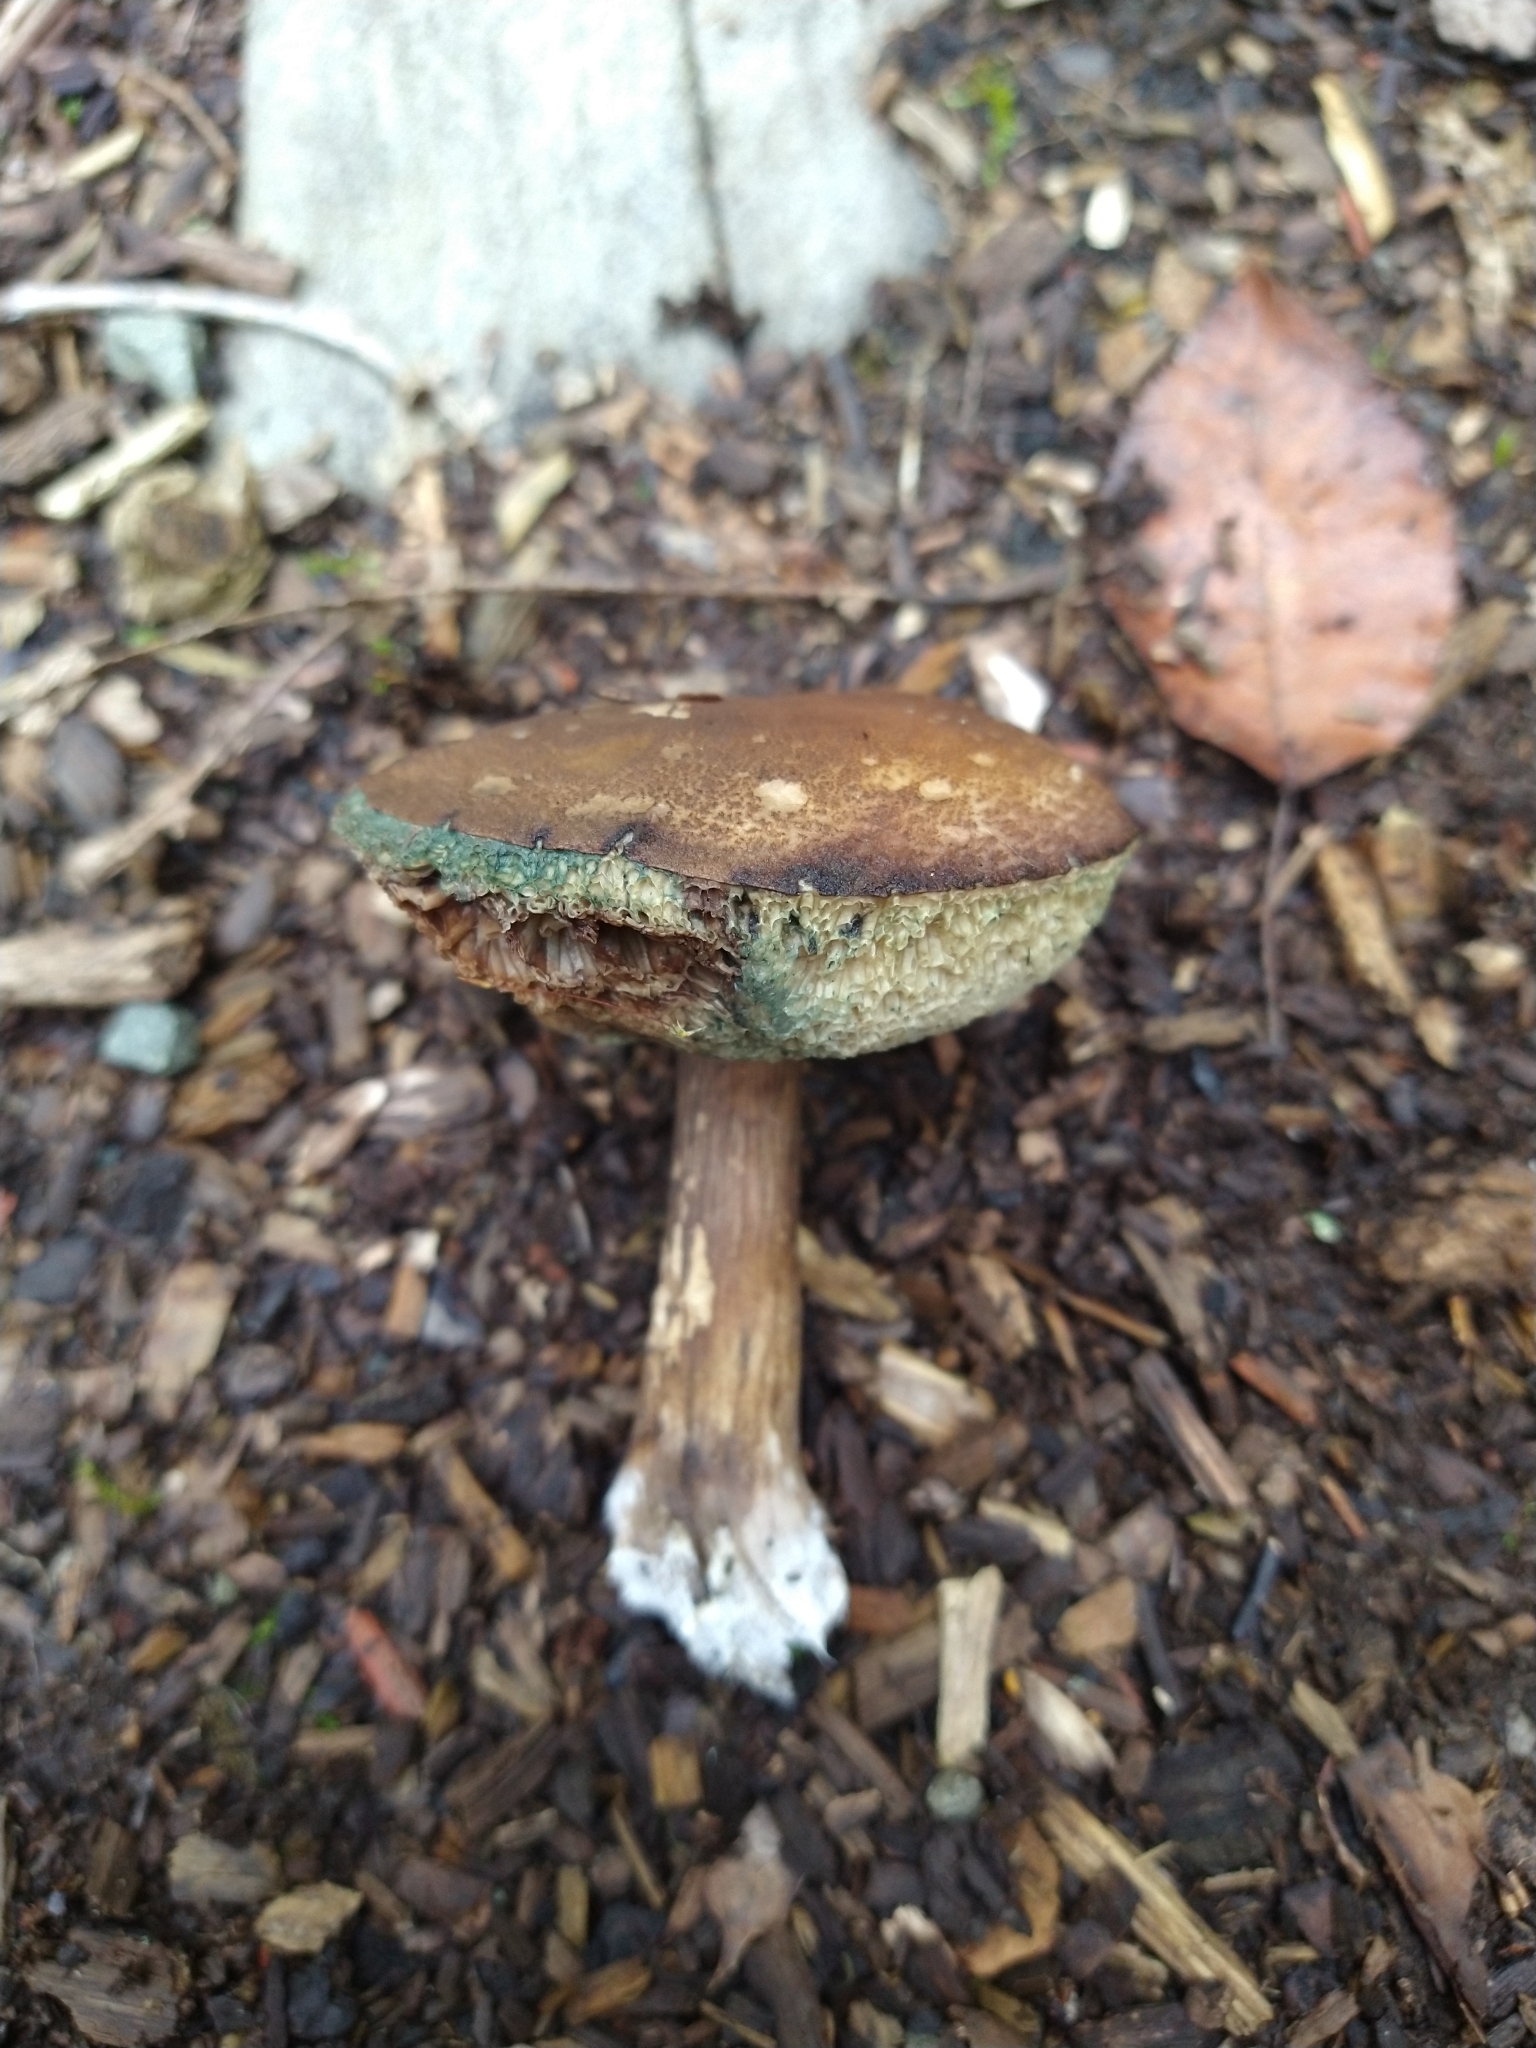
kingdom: Fungi
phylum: Basidiomycota
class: Agaricomycetes
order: Boletales
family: Boletaceae
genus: Imleria
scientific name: Imleria badia
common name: Bay bolete
